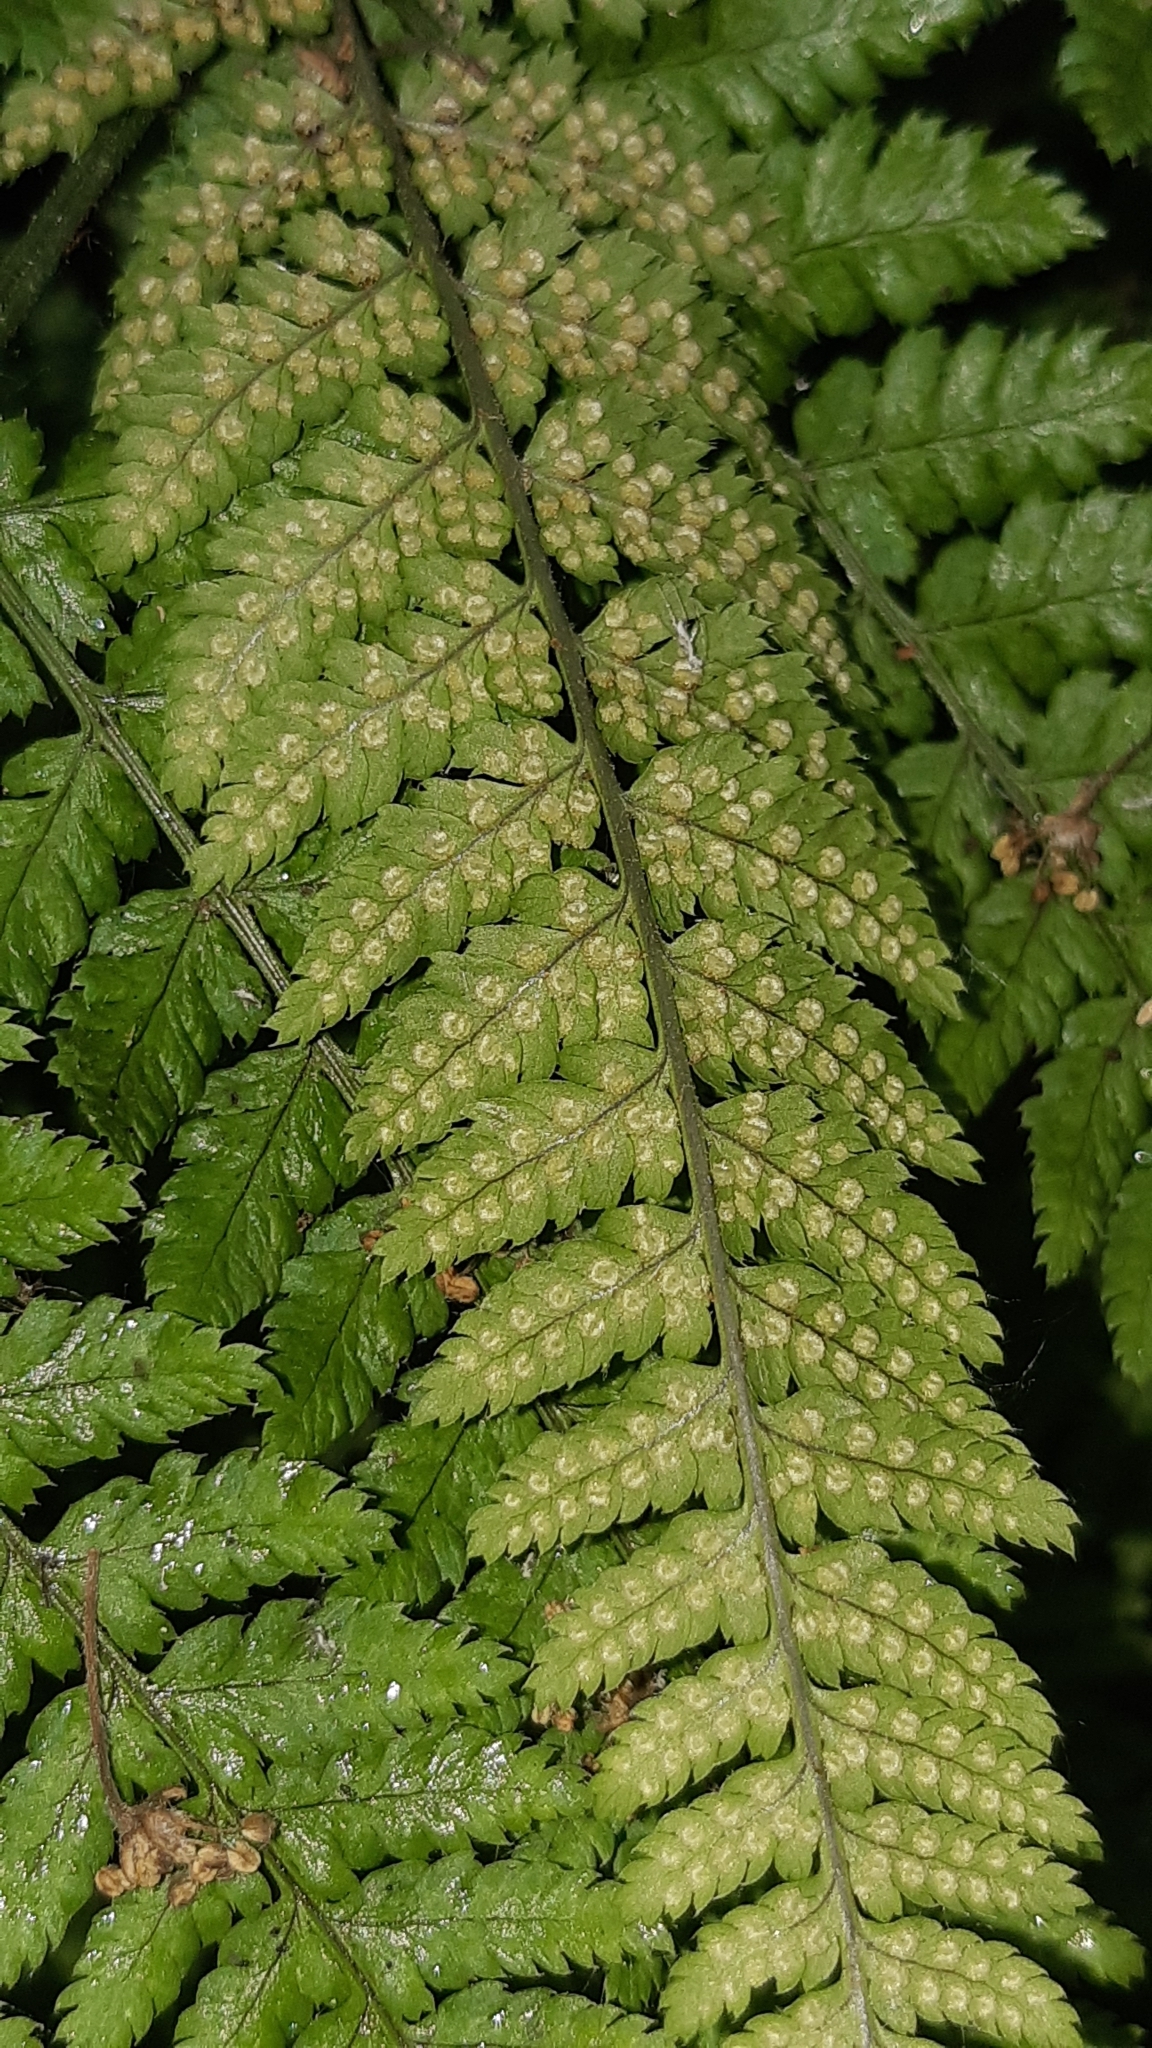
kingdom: Plantae
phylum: Tracheophyta
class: Polypodiopsida
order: Polypodiales
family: Dryopteridaceae
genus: Dryopteris
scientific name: Dryopteris dilatata
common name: Broad buckler-fern
